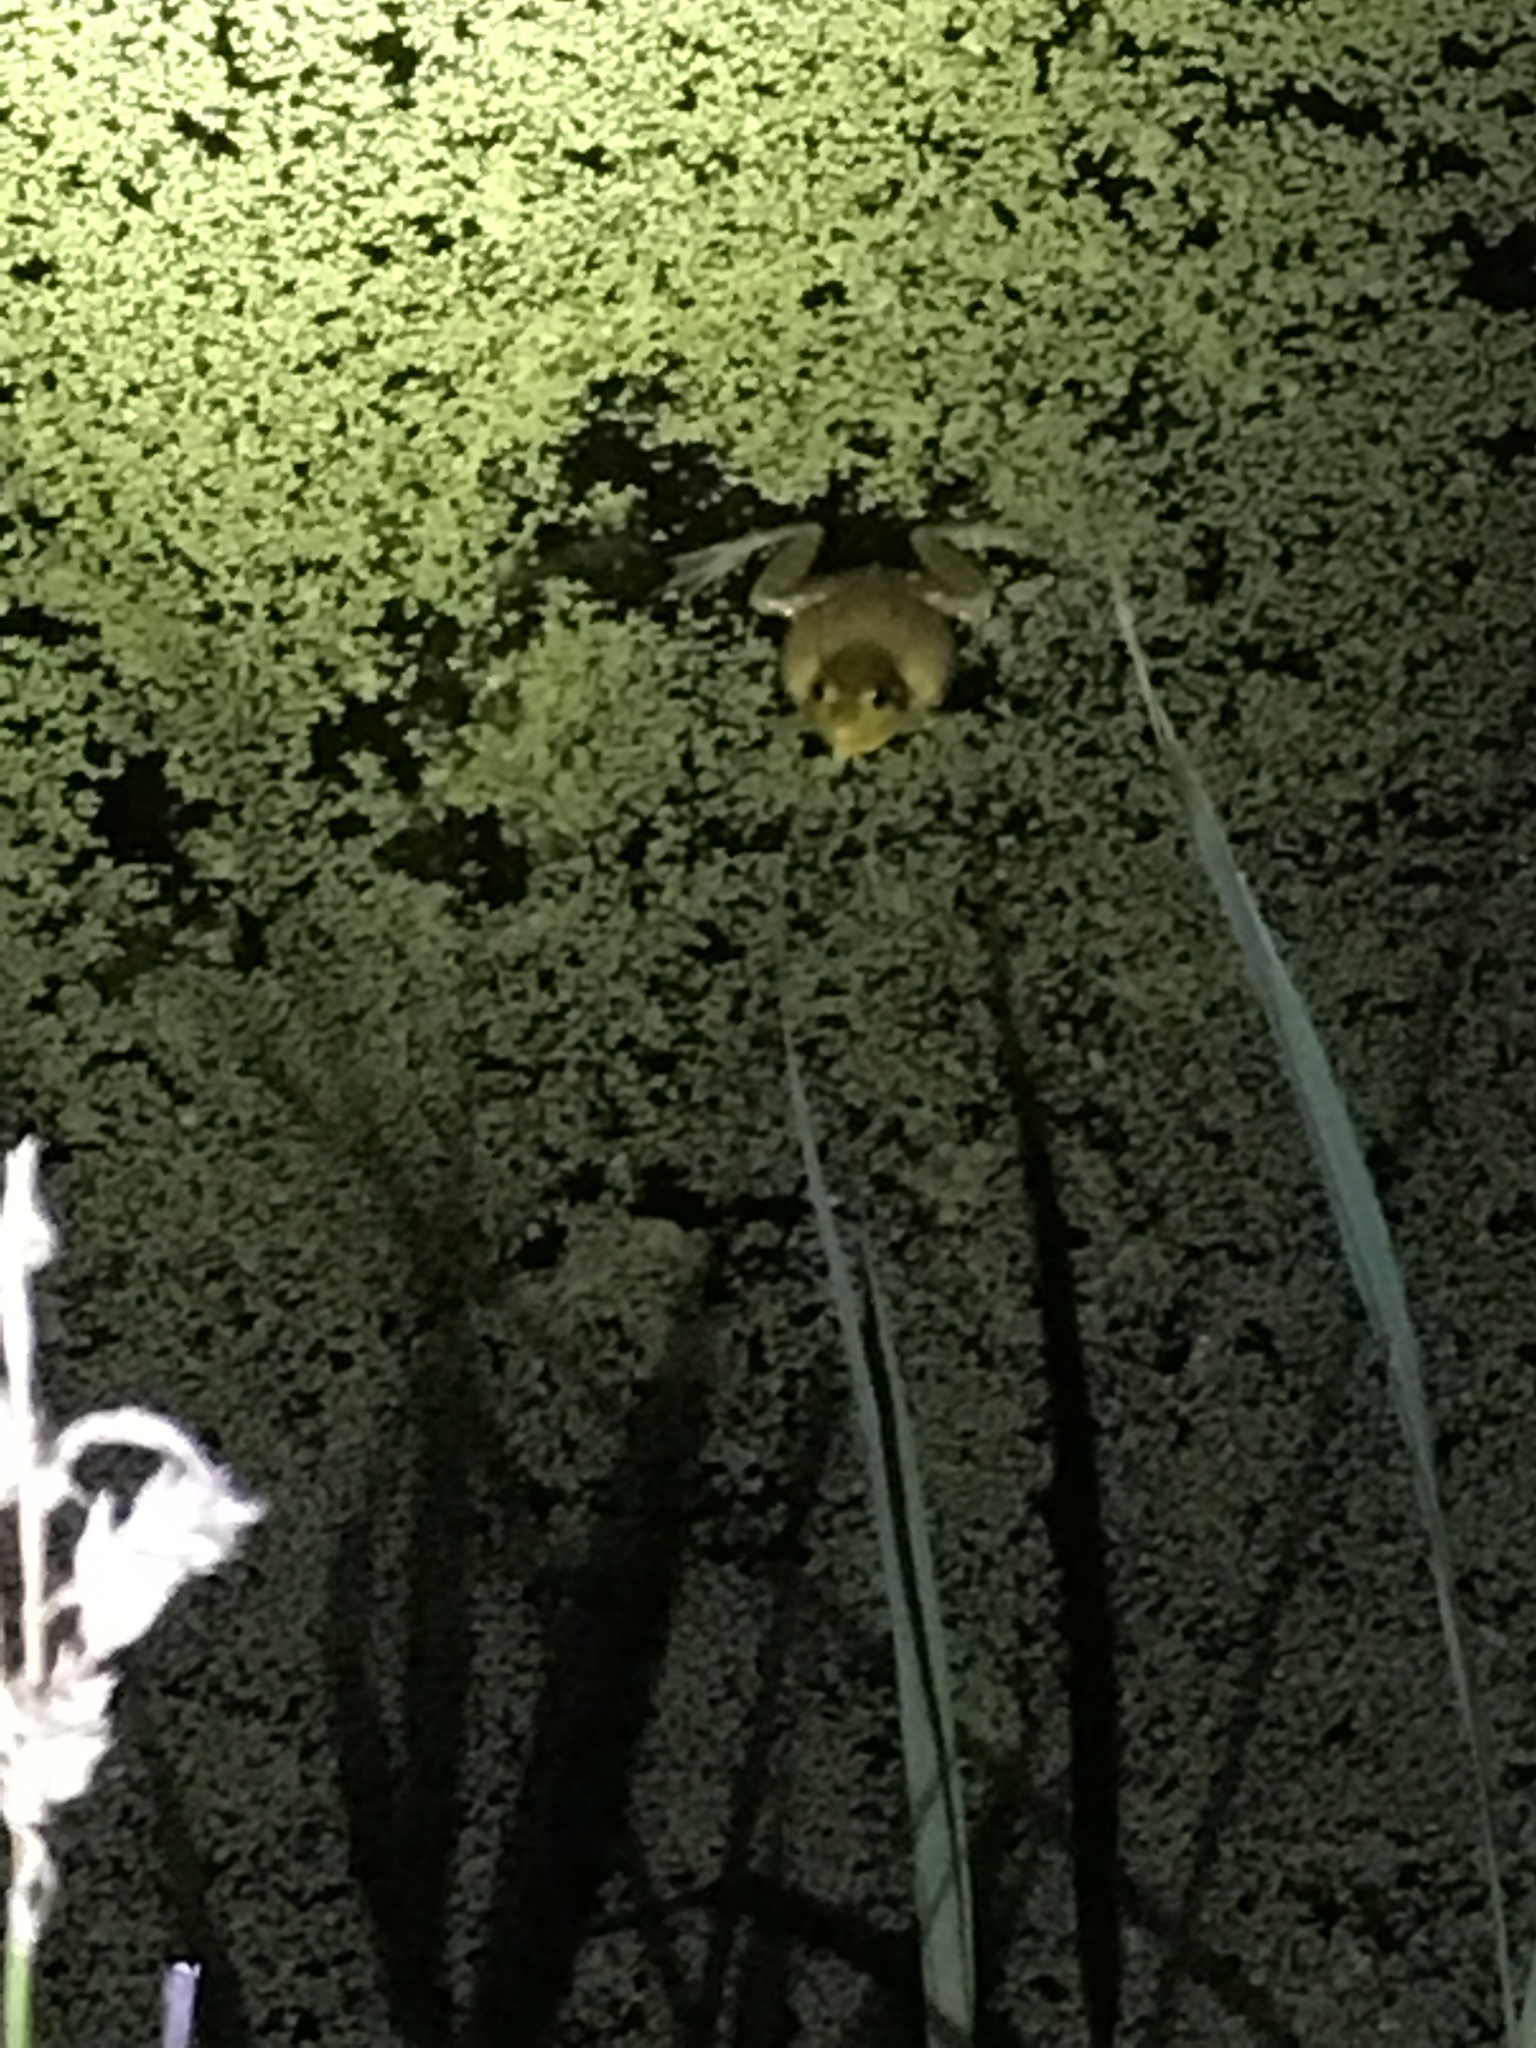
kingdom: Animalia
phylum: Chordata
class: Amphibia
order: Anura
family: Ranidae
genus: Lithobates
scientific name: Lithobates clamitans
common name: Green frog
